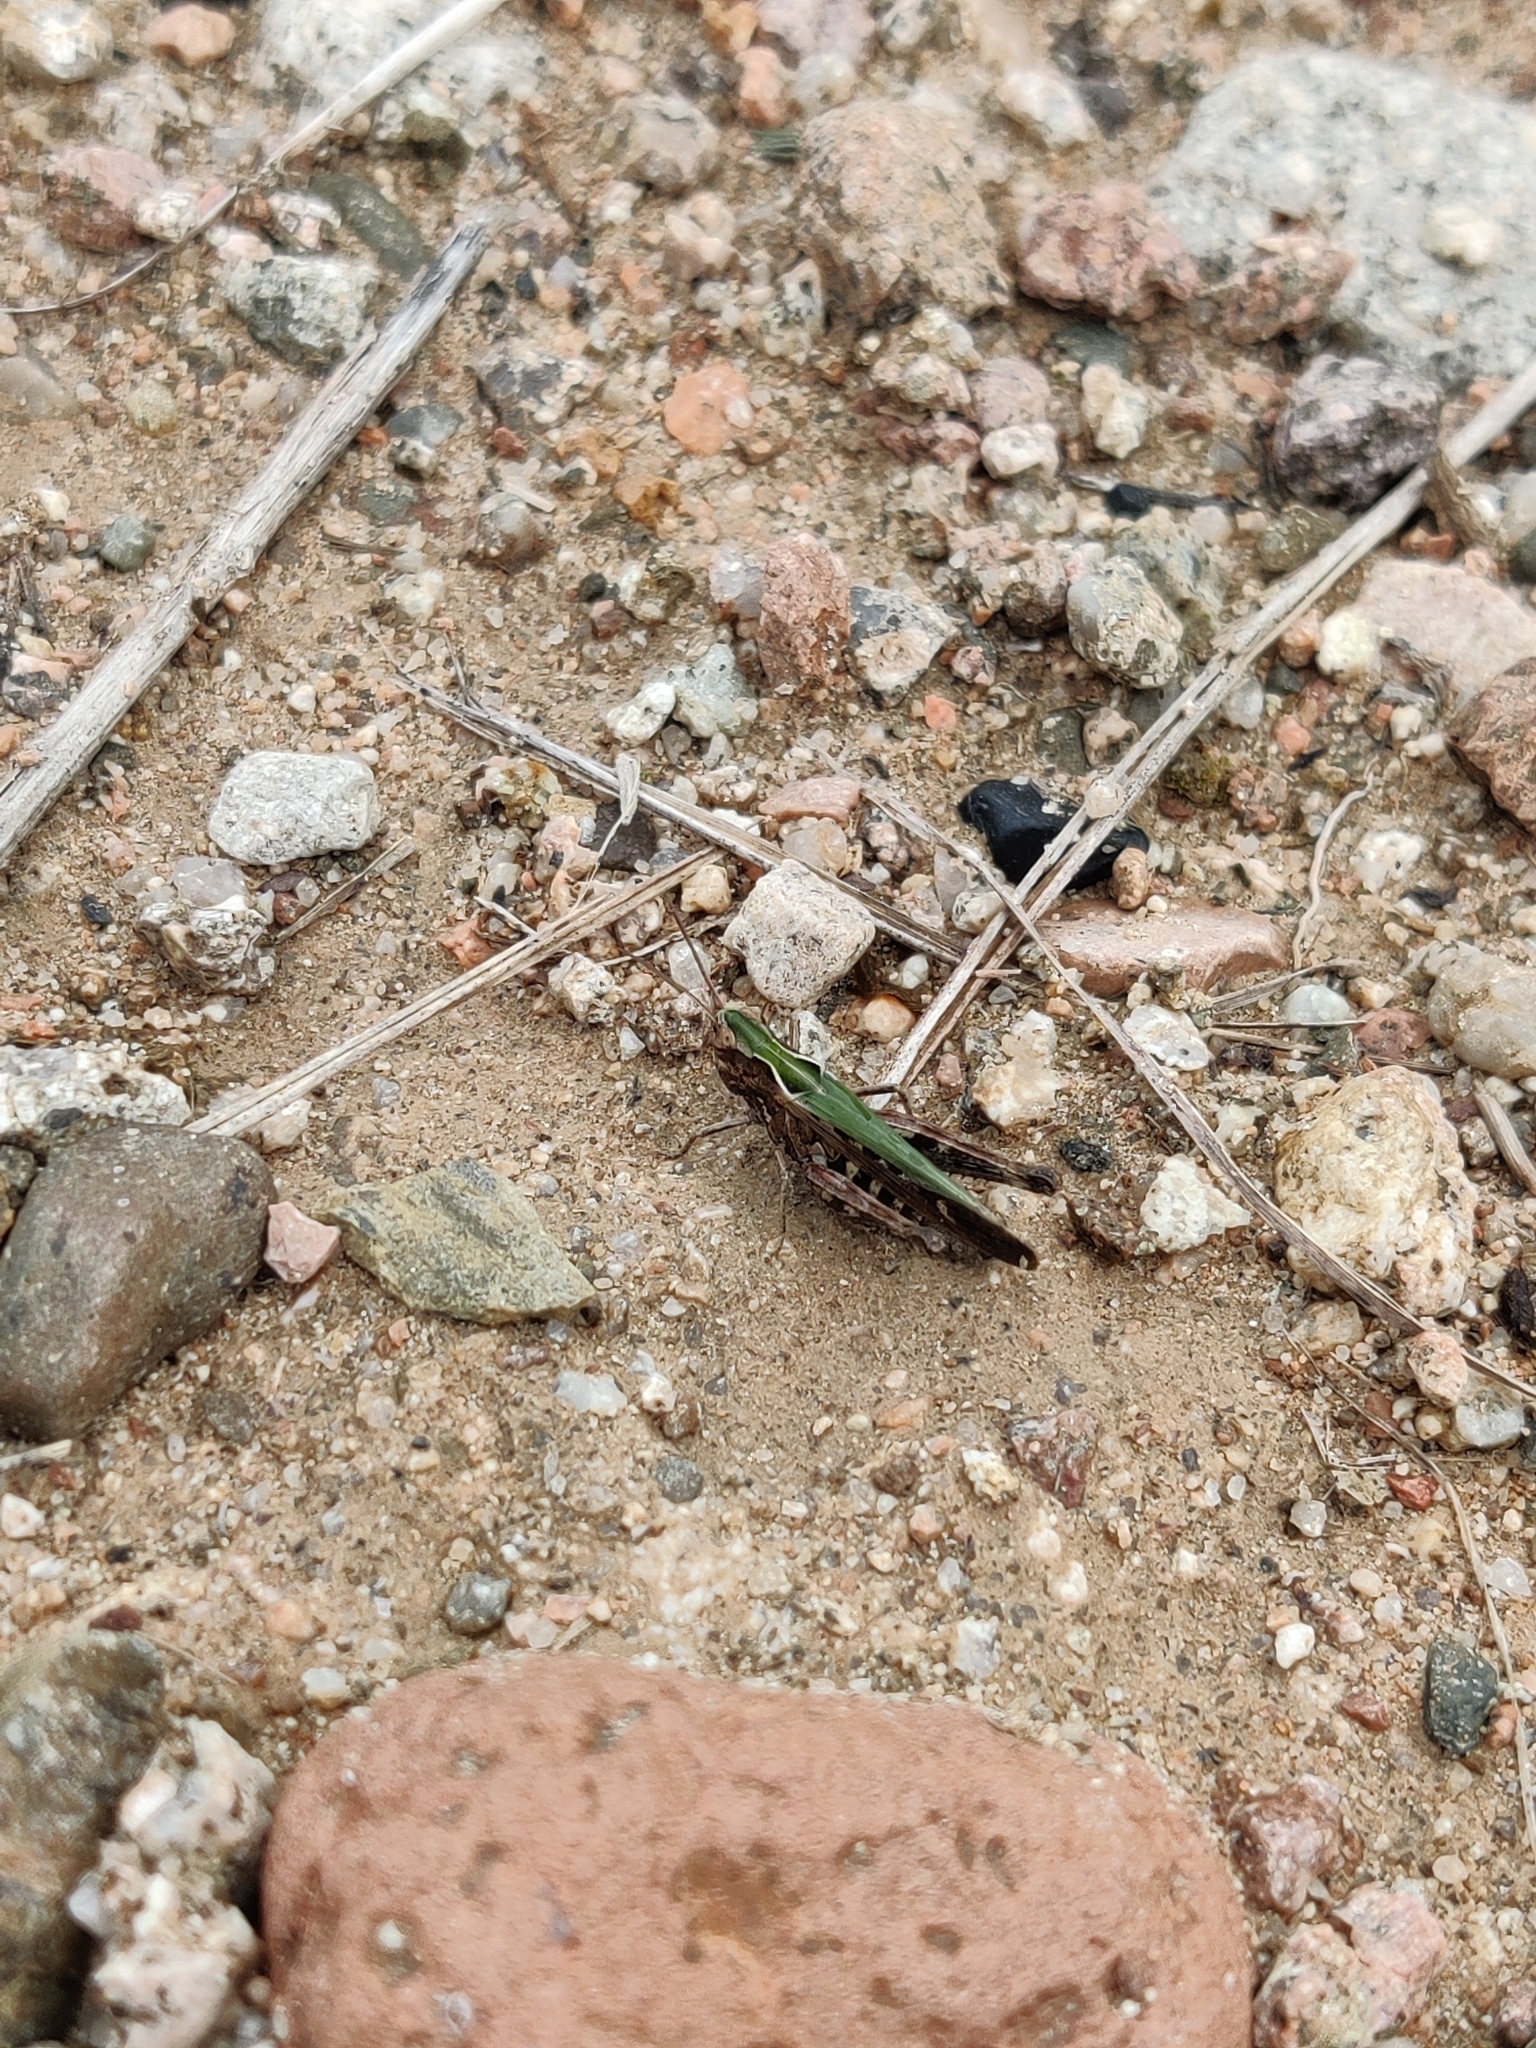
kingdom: Animalia
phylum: Arthropoda
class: Insecta
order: Orthoptera
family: Acrididae
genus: Omocestus
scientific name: Omocestus rufipes
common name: Woodland grasshopper
